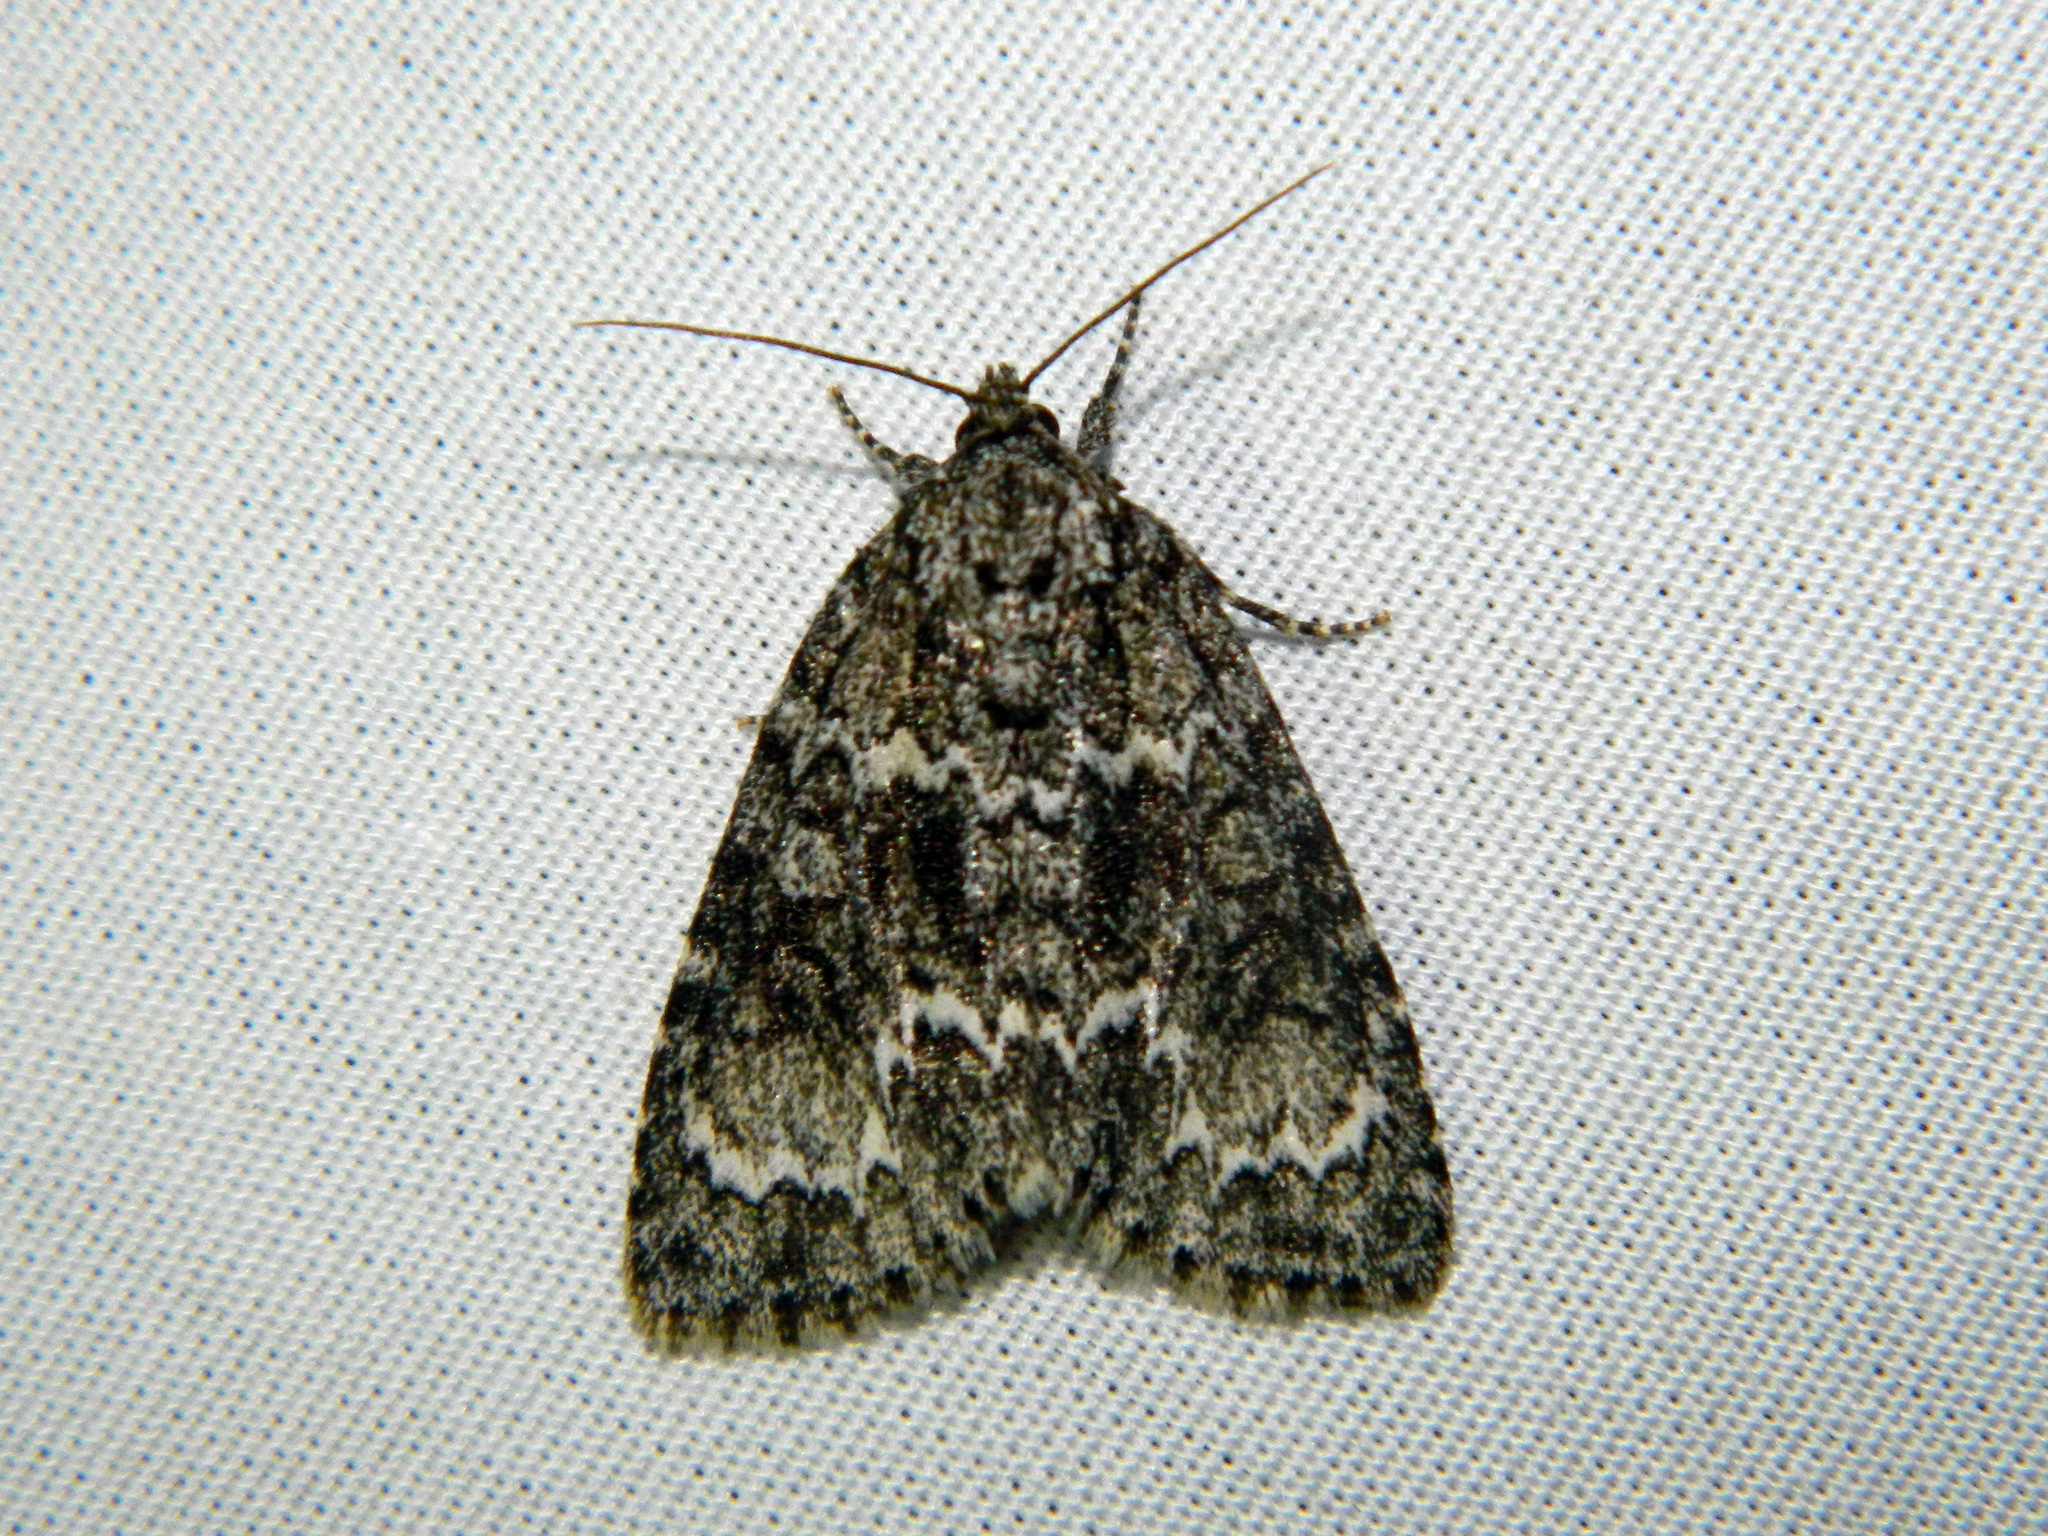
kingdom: Animalia
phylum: Arthropoda
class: Insecta
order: Lepidoptera
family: Noctuidae
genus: Acronicta
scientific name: Acronicta fragilis
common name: Fragile dagger
